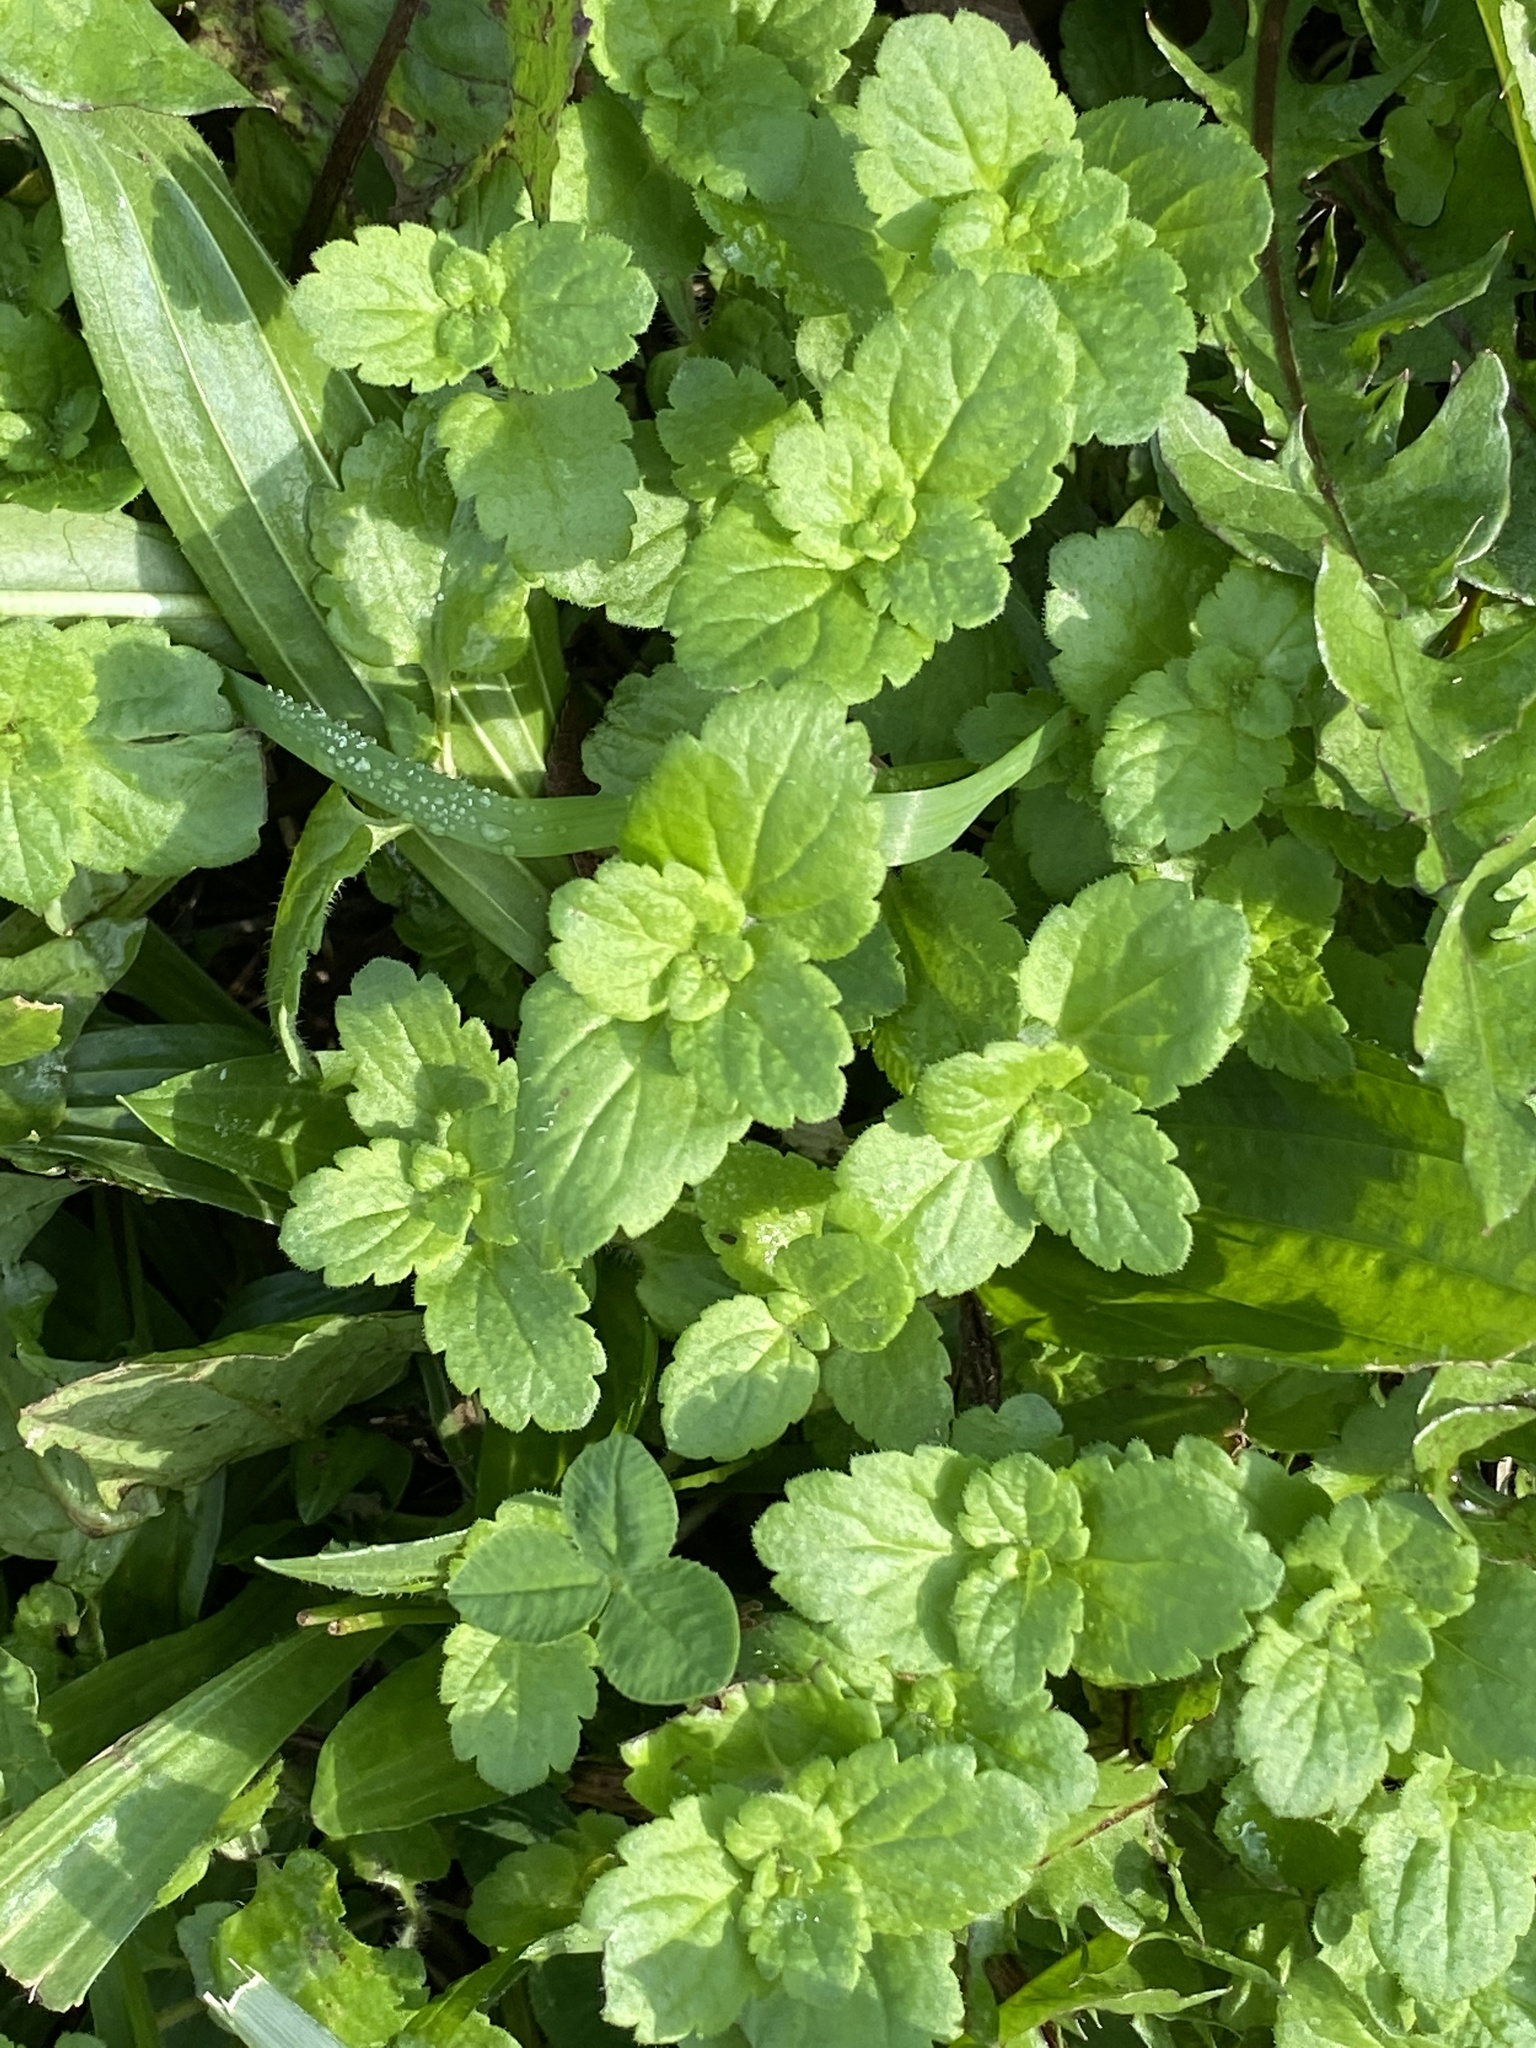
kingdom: Plantae
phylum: Tracheophyta
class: Magnoliopsida
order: Lamiales
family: Plantaginaceae
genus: Veronica
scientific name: Veronica persica
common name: Common field-speedwell
